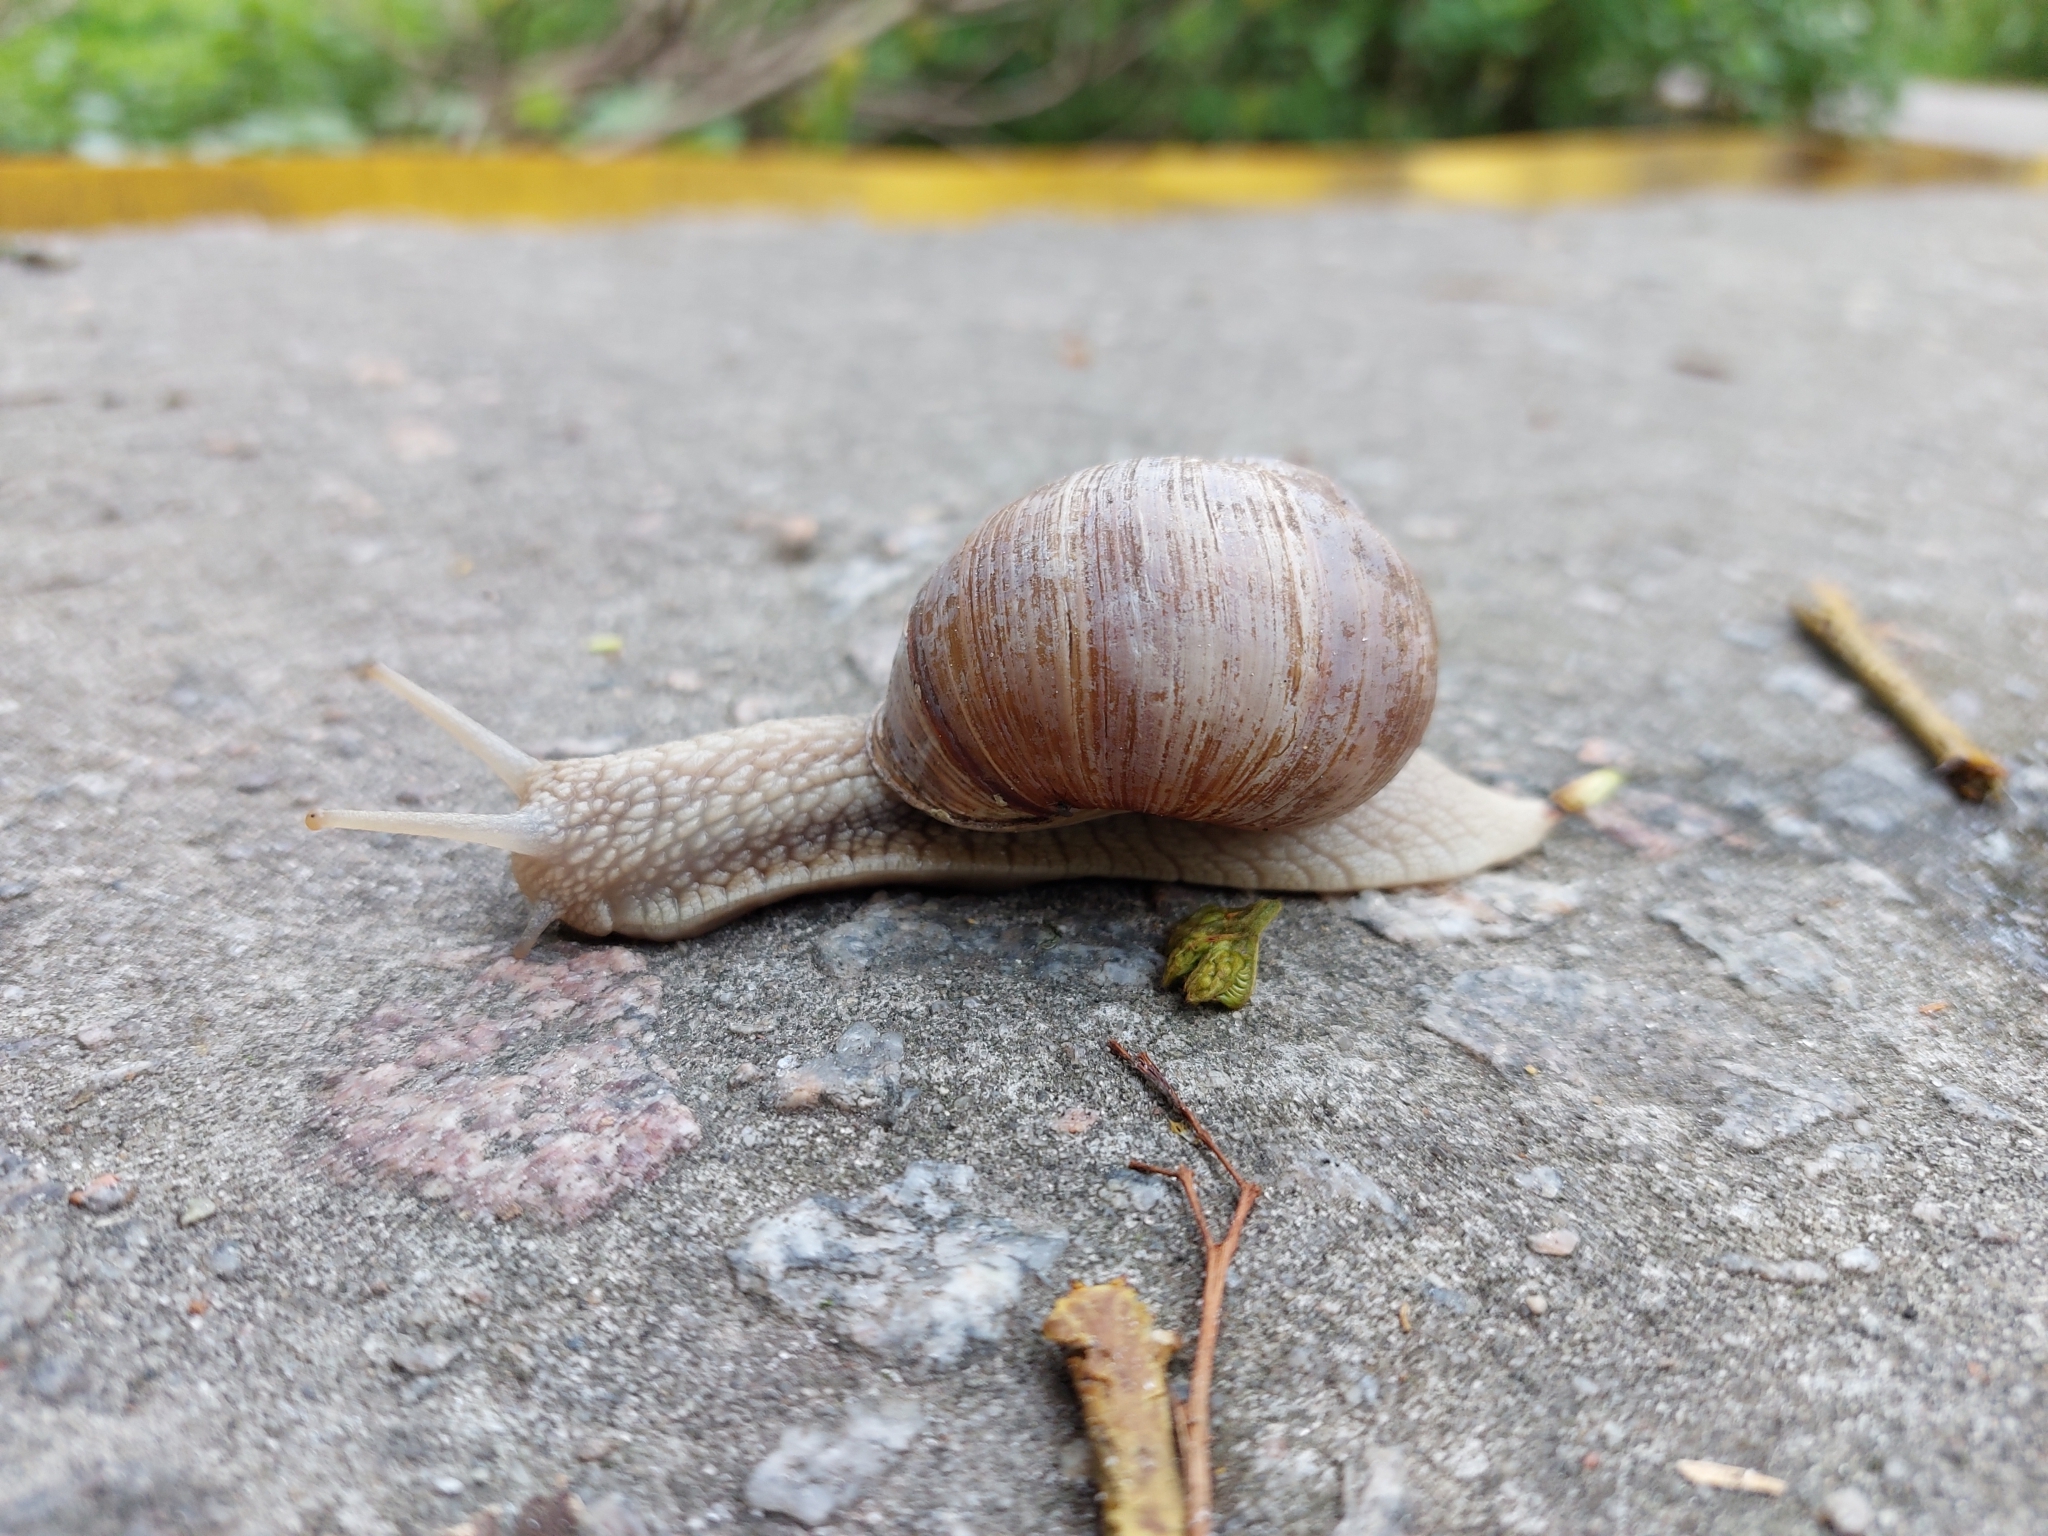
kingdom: Animalia
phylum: Mollusca
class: Gastropoda
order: Stylommatophora
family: Helicidae
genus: Helix
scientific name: Helix pomatia
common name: Roman snail
